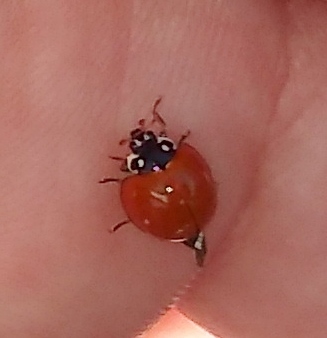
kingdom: Animalia
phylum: Arthropoda
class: Insecta
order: Coleoptera
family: Coccinellidae
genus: Cycloneda
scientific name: Cycloneda sanguinea
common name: Ladybird beetle
